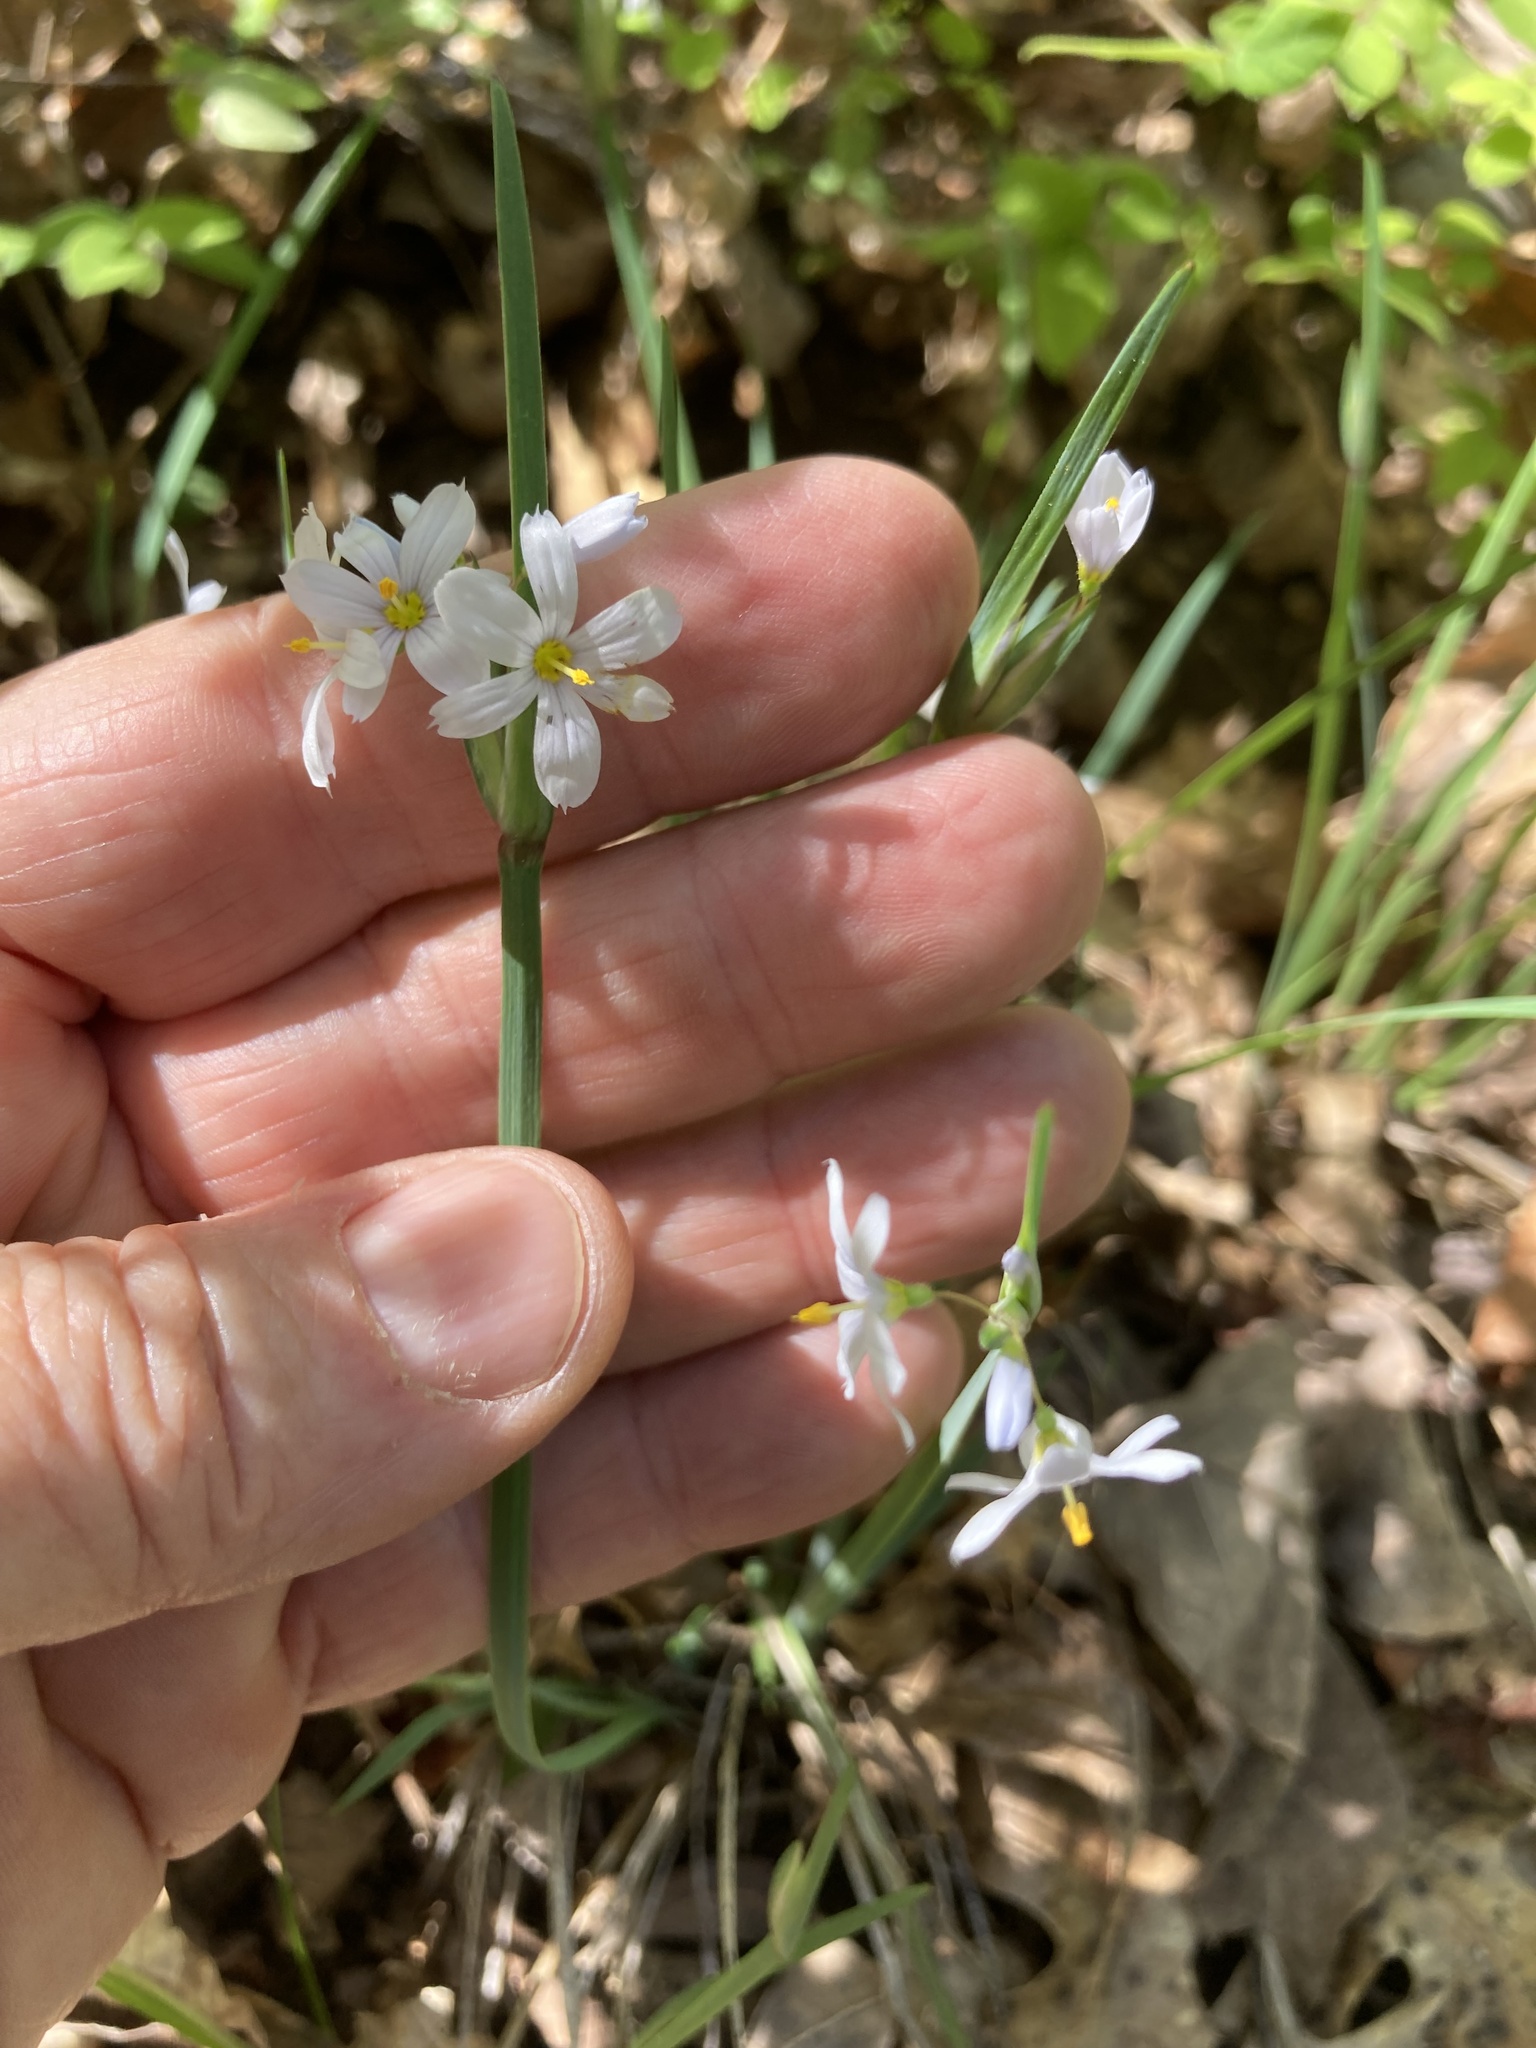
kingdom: Plantae
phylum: Tracheophyta
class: Liliopsida
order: Asparagales
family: Iridaceae
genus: Sisyrinchium
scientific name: Sisyrinchium albidum
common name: Pale blue-eyed-grass
